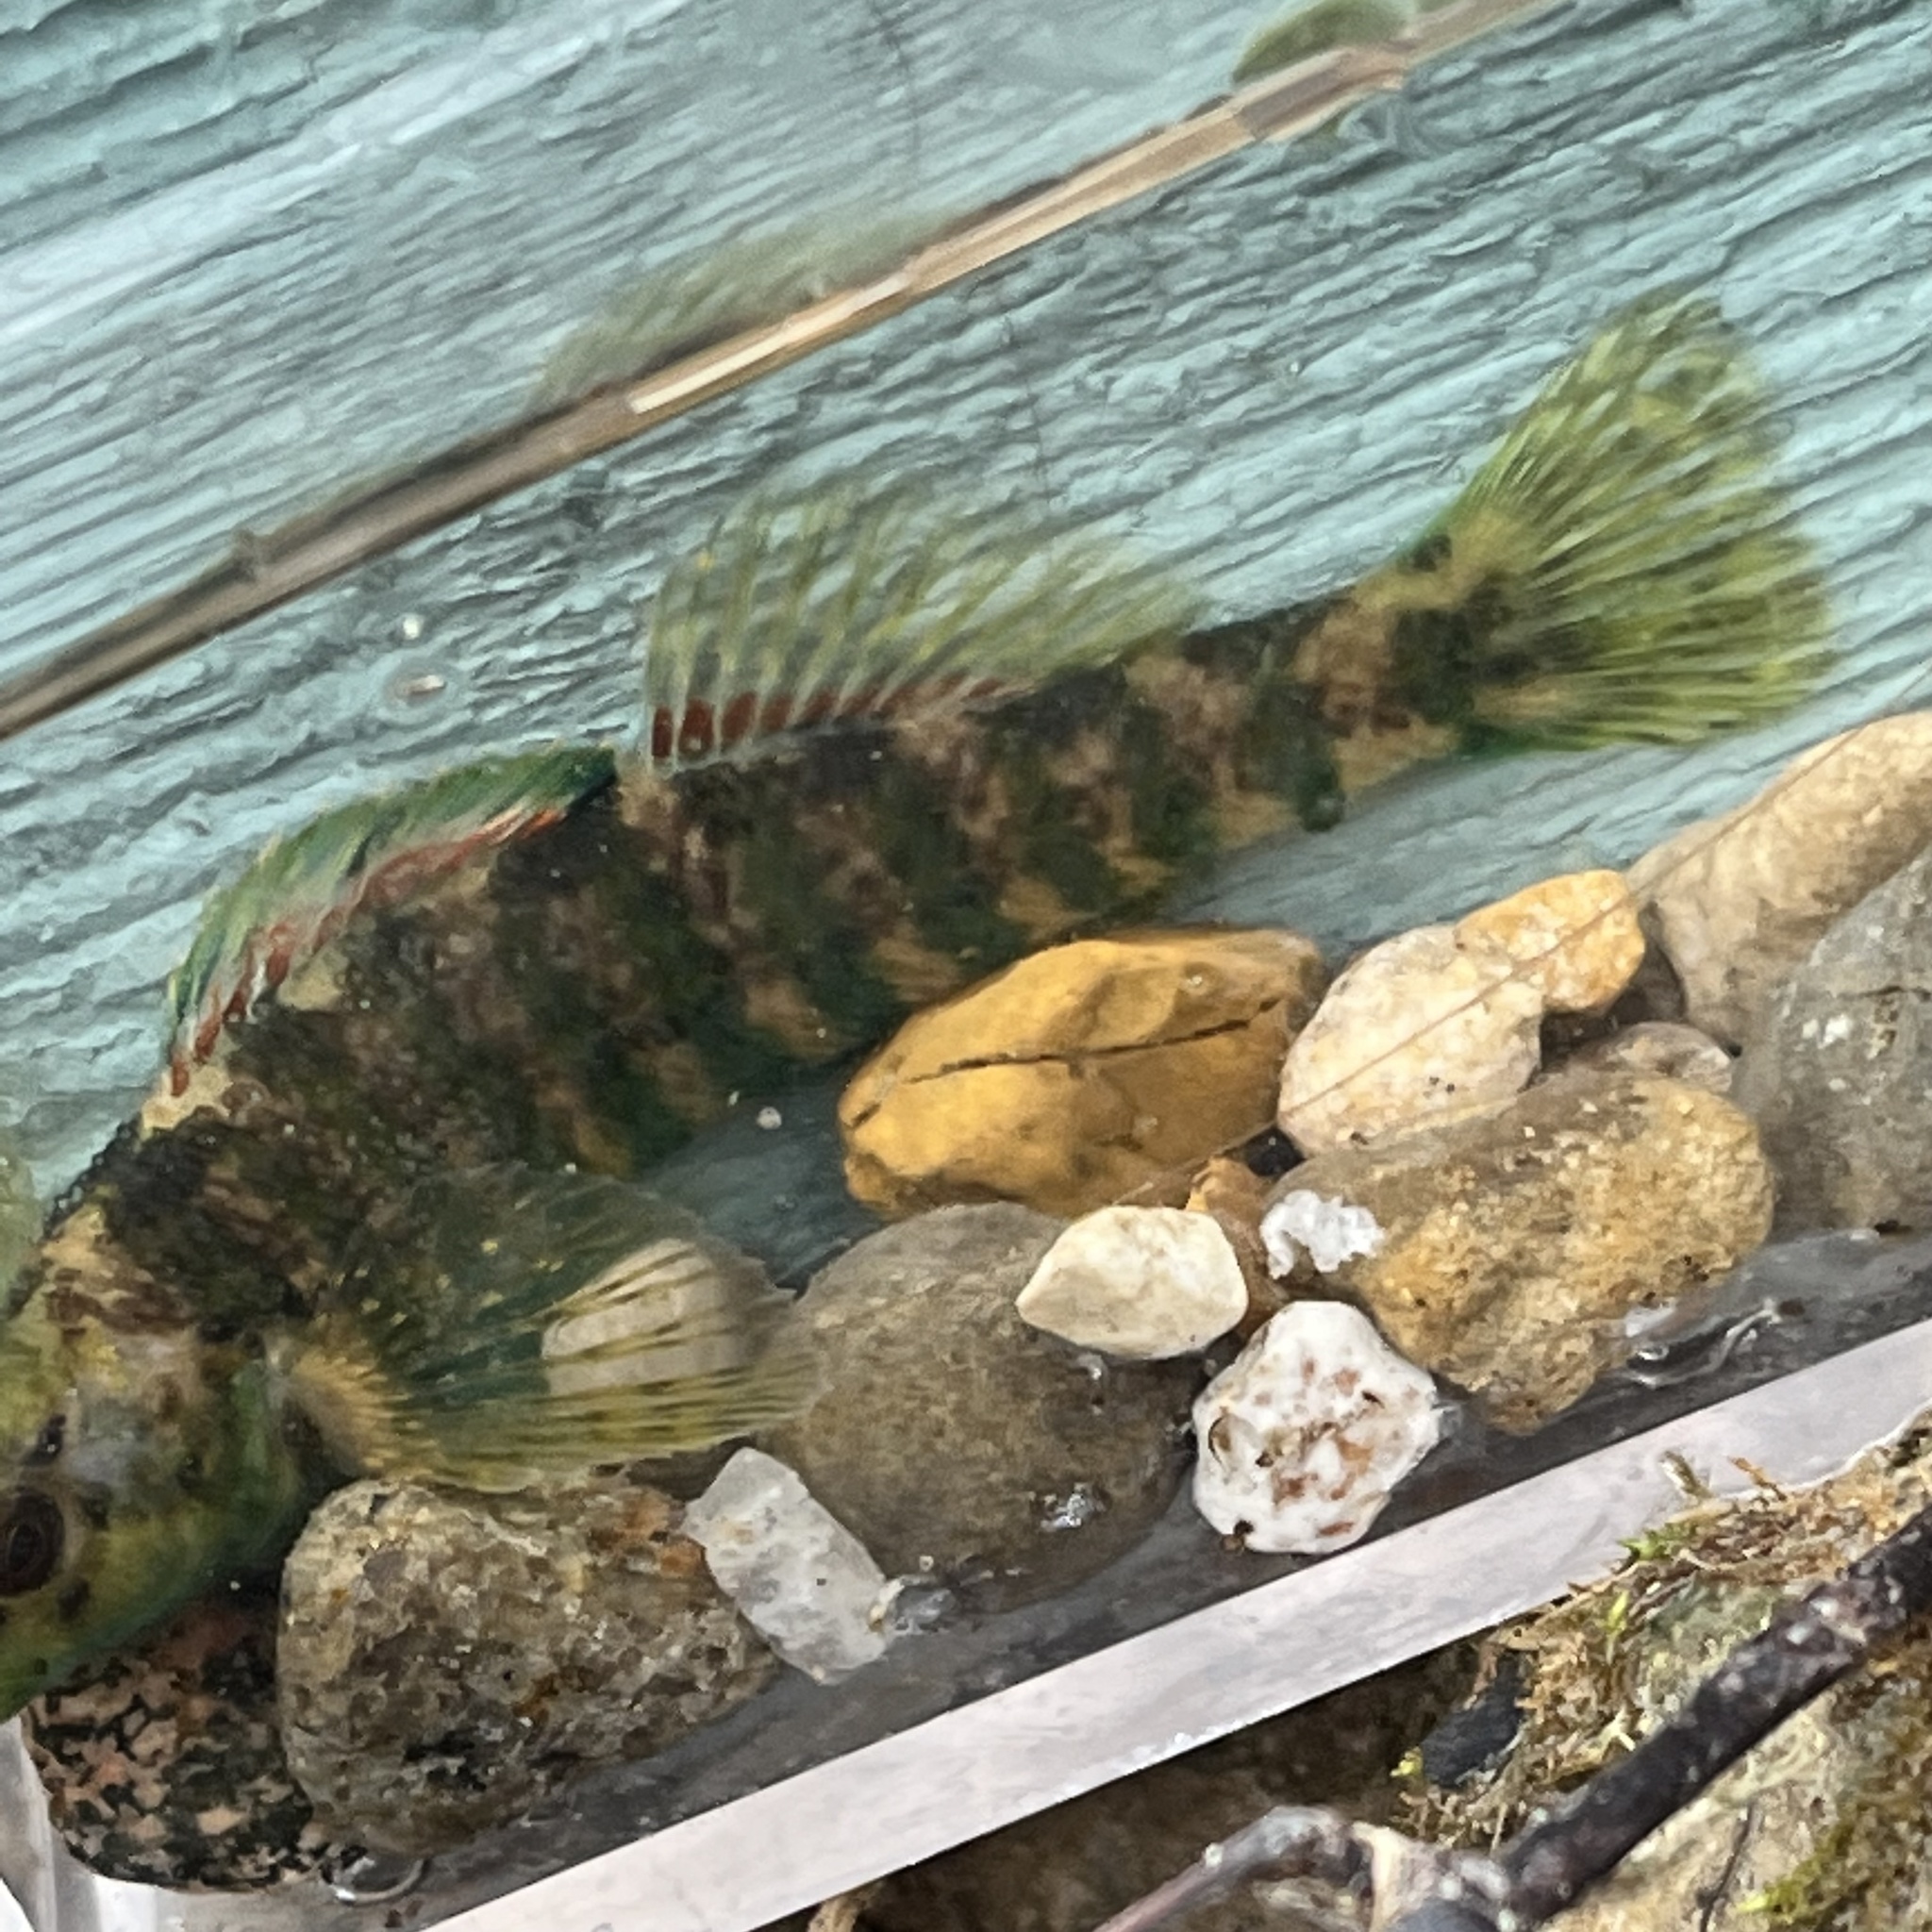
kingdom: Animalia
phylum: Chordata
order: Perciformes
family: Percidae
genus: Etheostoma
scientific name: Etheostoma zonale
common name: Banded darter
